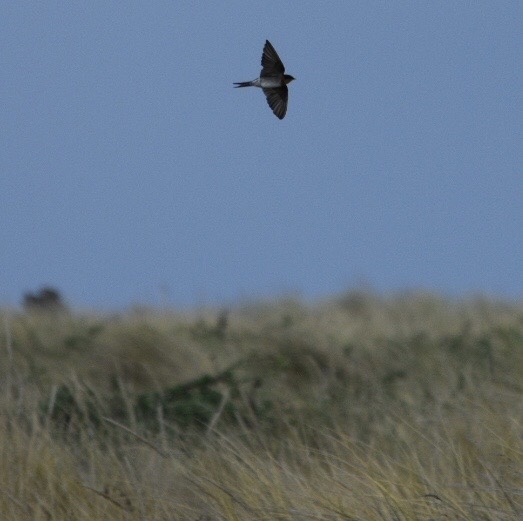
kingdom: Animalia
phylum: Chordata
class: Aves
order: Passeriformes
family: Hirundinidae
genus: Hirundo
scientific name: Hirundo neoxena
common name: Welcome swallow
